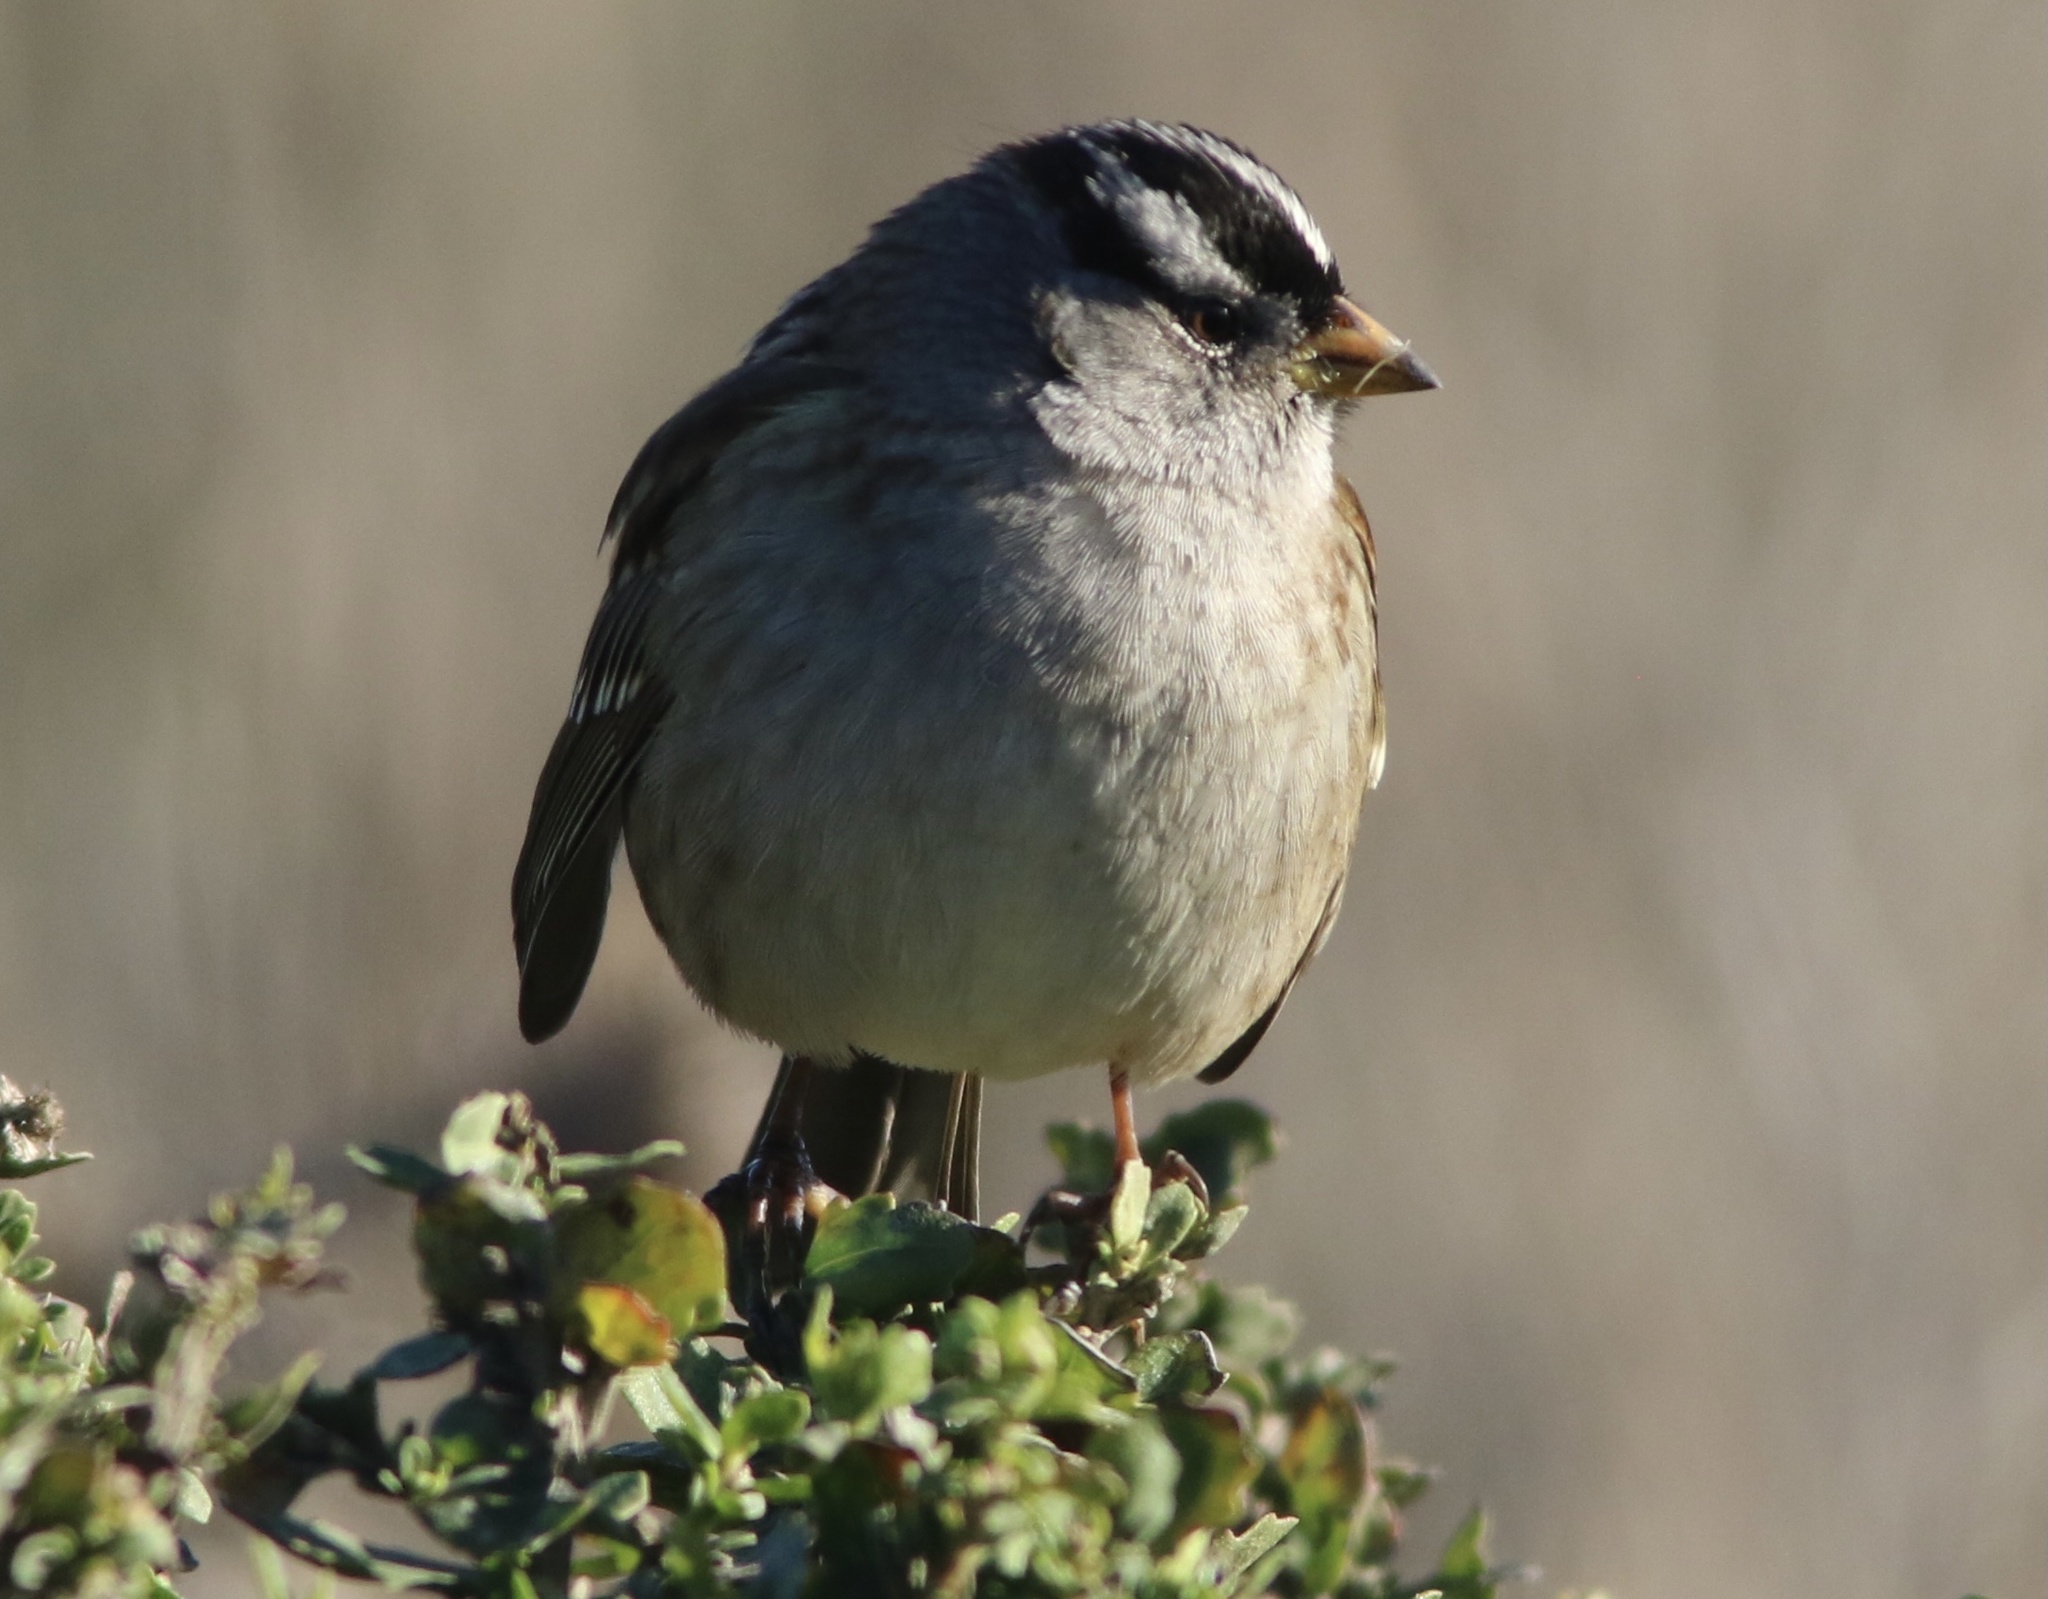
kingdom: Animalia
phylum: Chordata
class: Aves
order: Passeriformes
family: Passerellidae
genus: Zonotrichia
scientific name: Zonotrichia leucophrys
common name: White-crowned sparrow
